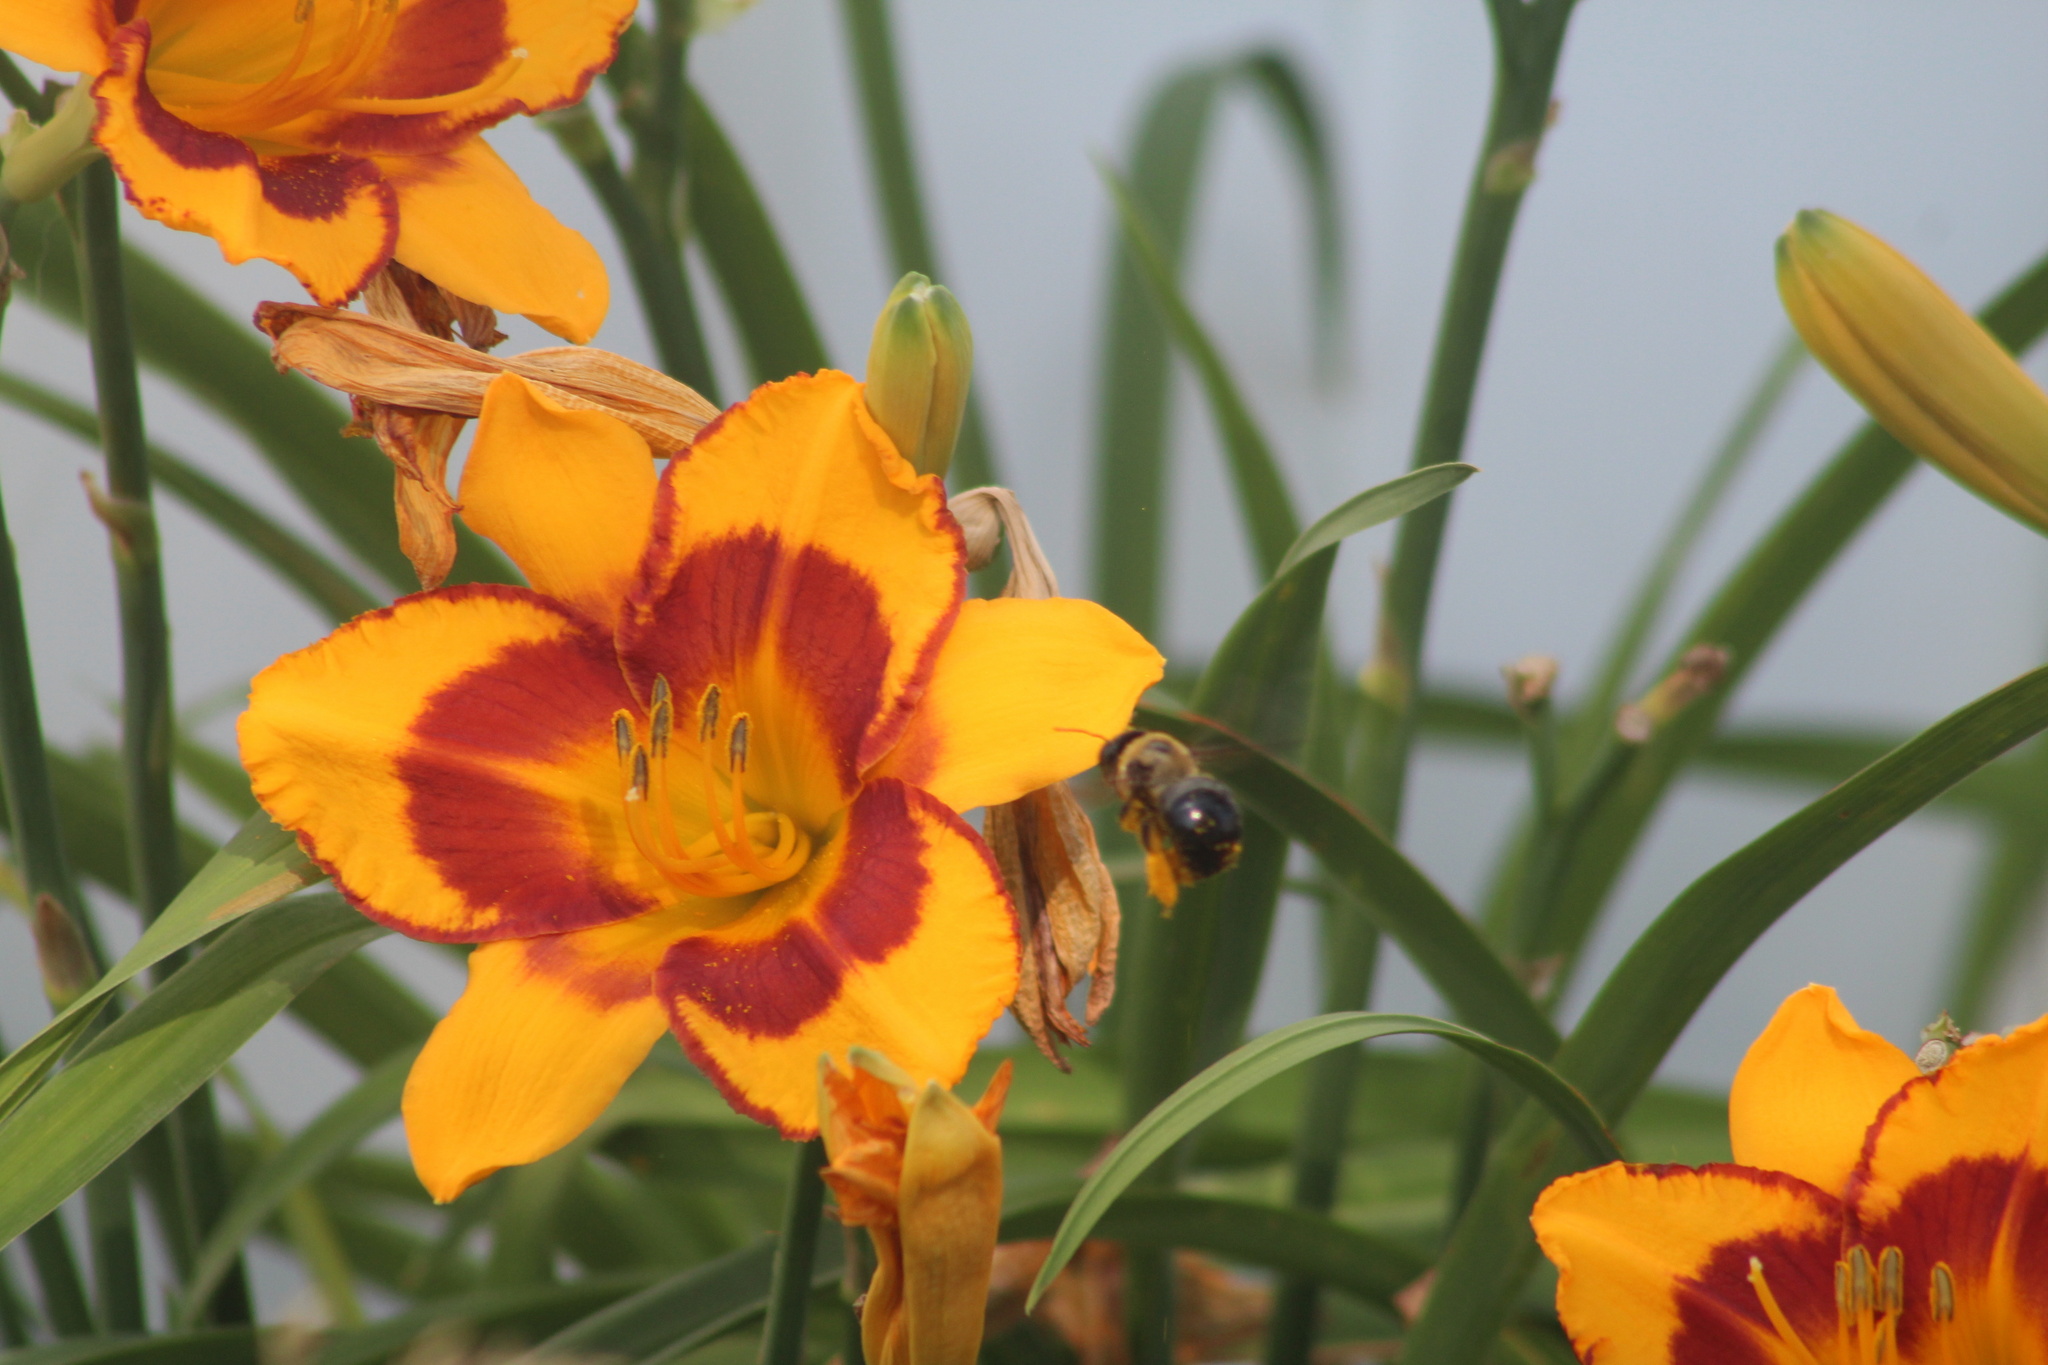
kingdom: Animalia
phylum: Arthropoda
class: Insecta
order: Hymenoptera
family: Apidae
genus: Xylocopa
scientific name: Xylocopa virginica
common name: Carpenter bee
